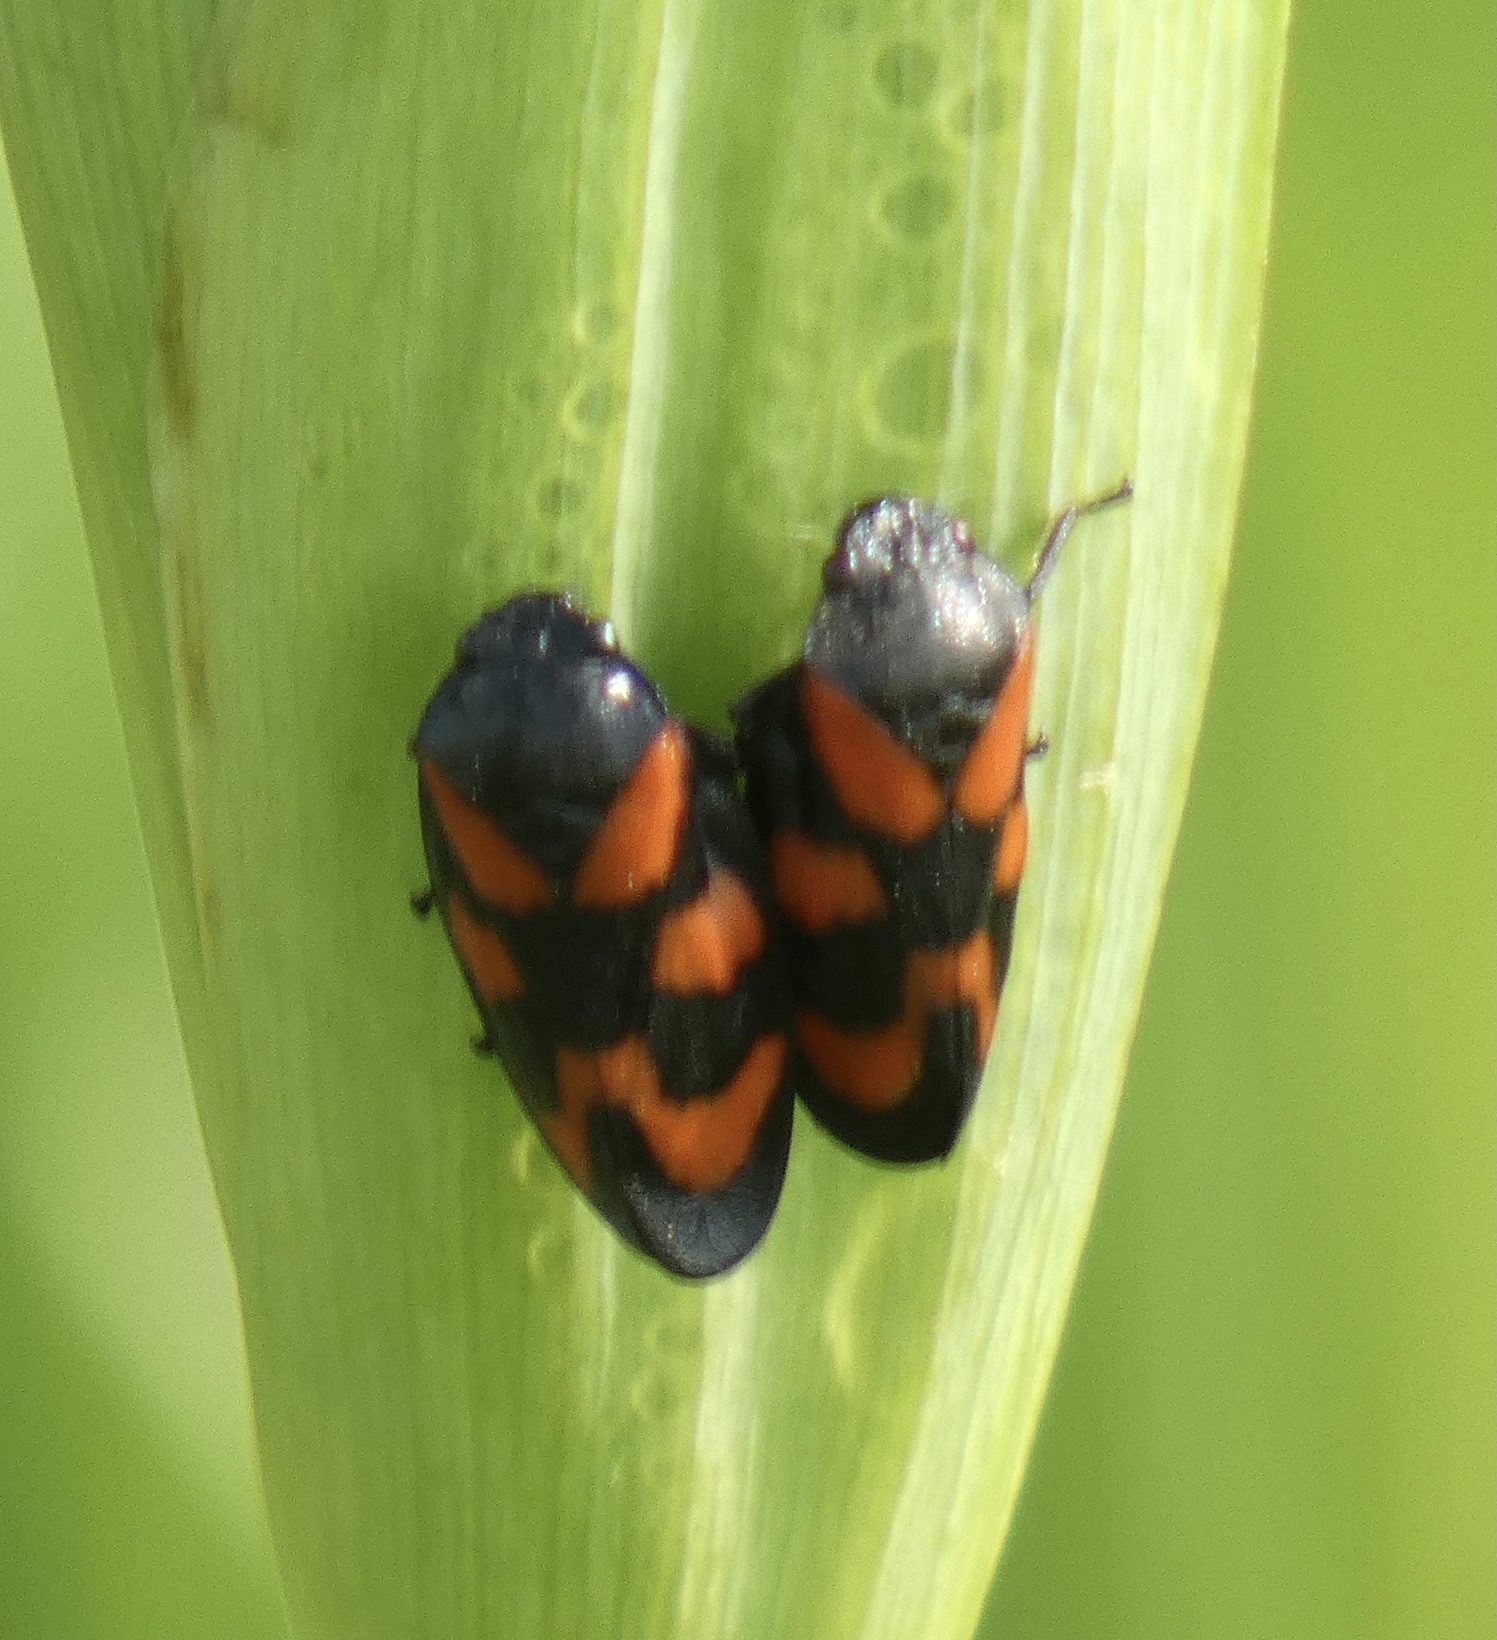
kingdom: Animalia
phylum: Arthropoda
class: Insecta
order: Hemiptera
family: Cercopidae
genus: Cercopis
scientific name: Cercopis vulnerata
